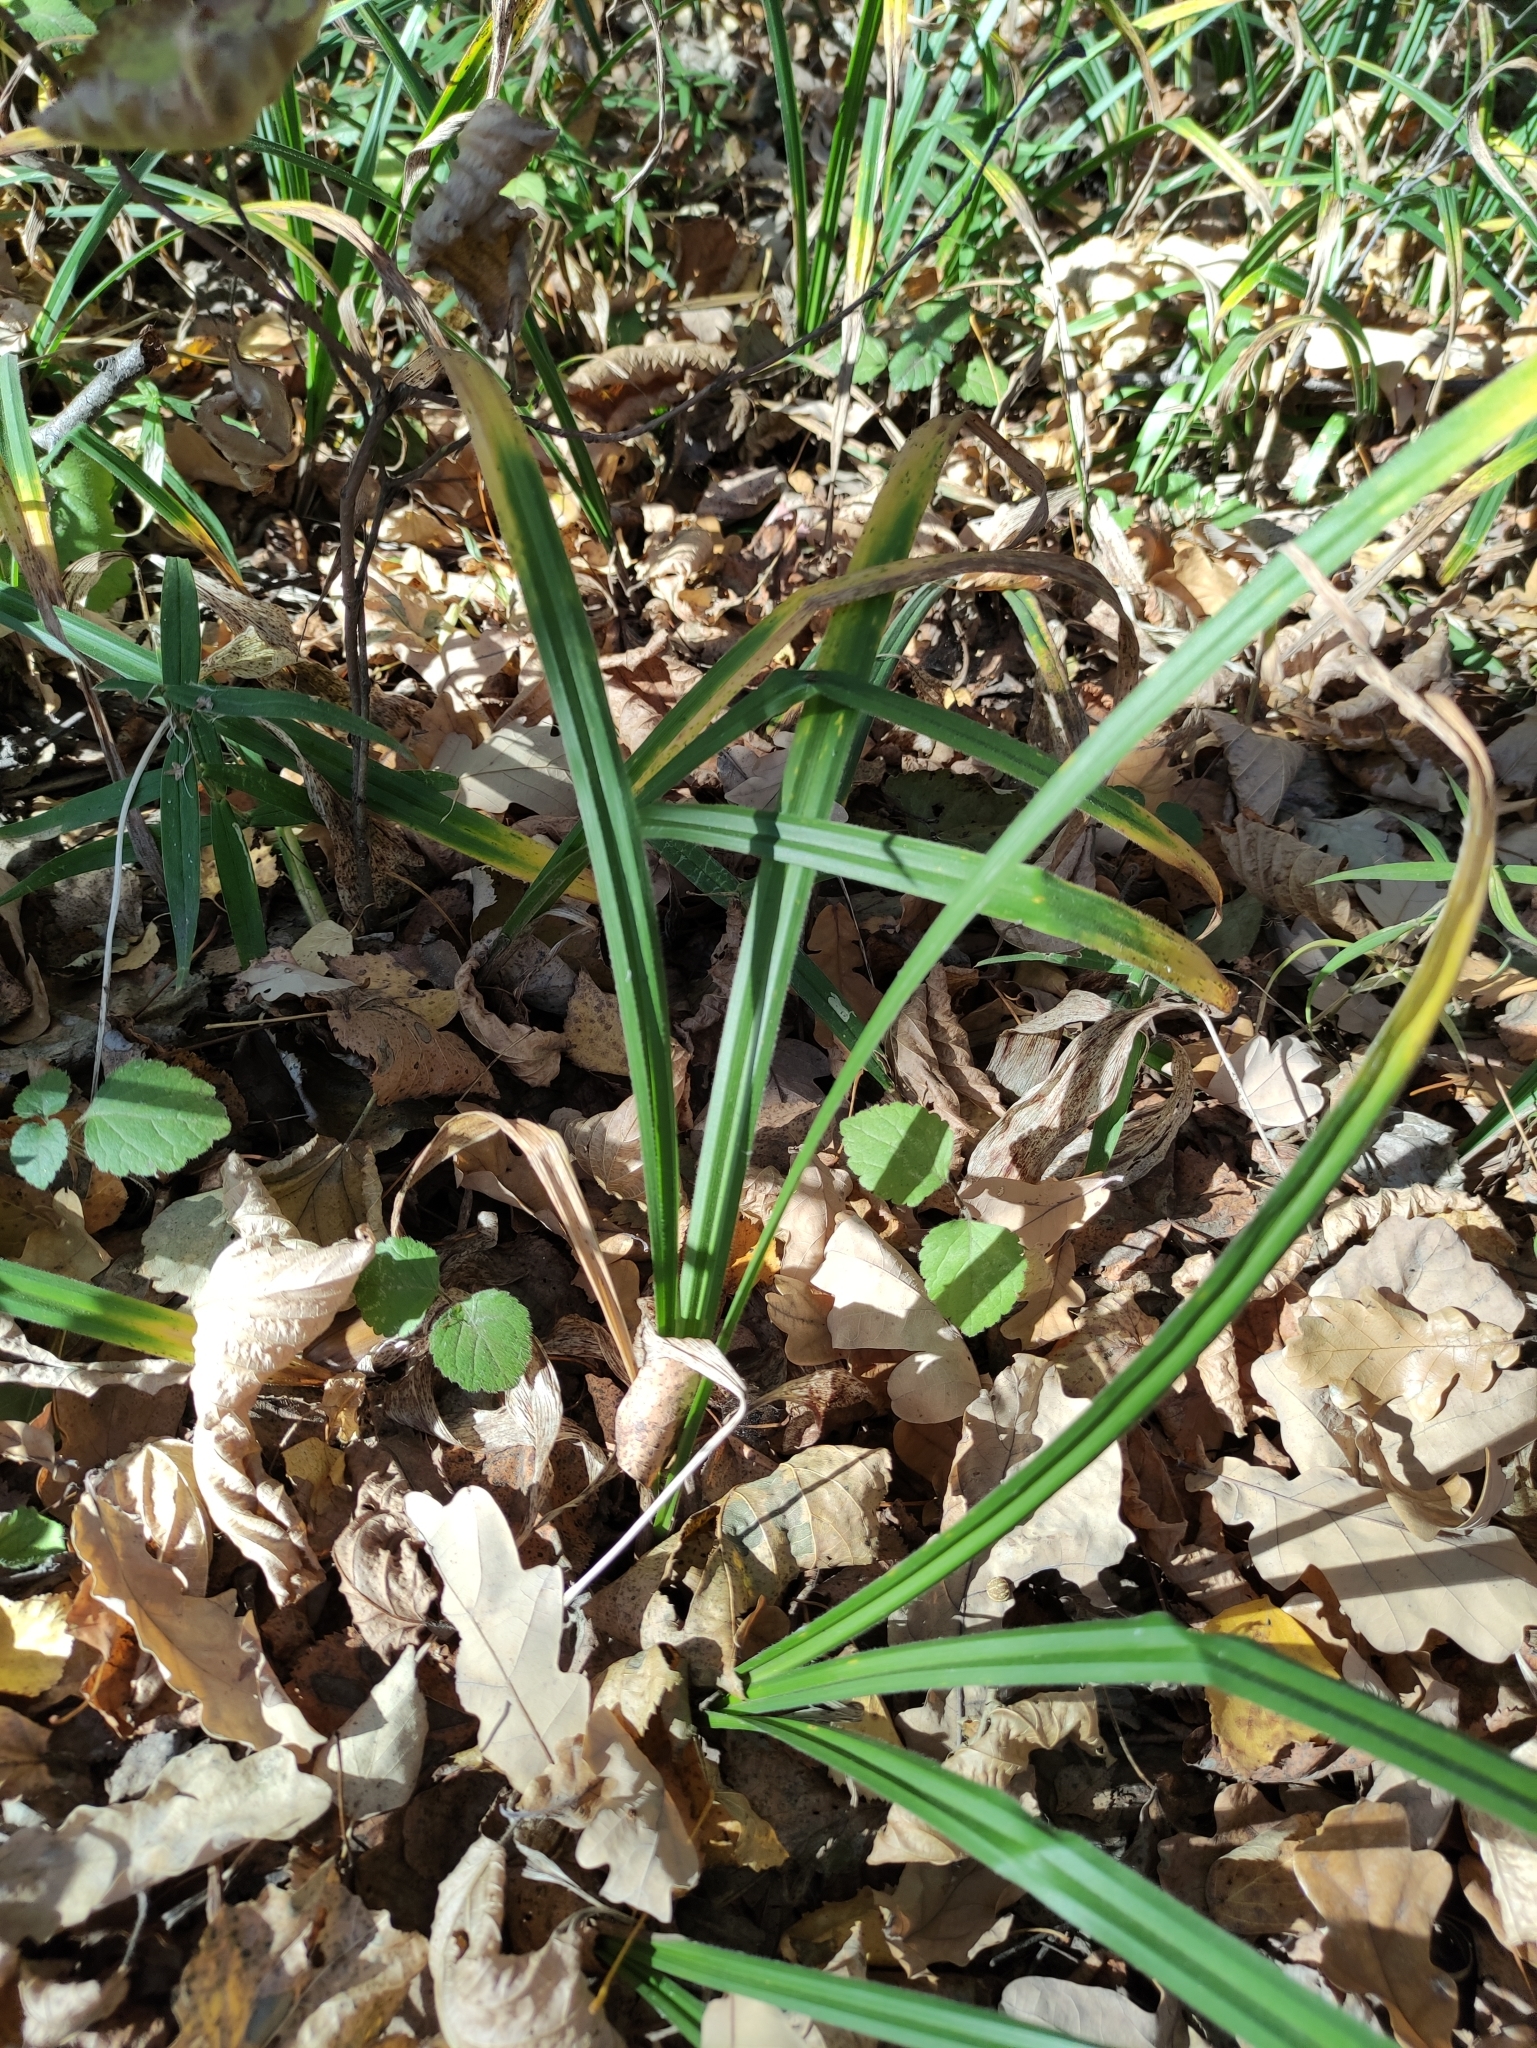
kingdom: Plantae
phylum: Tracheophyta
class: Liliopsida
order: Poales
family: Cyperaceae
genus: Carex
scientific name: Carex pilosa
